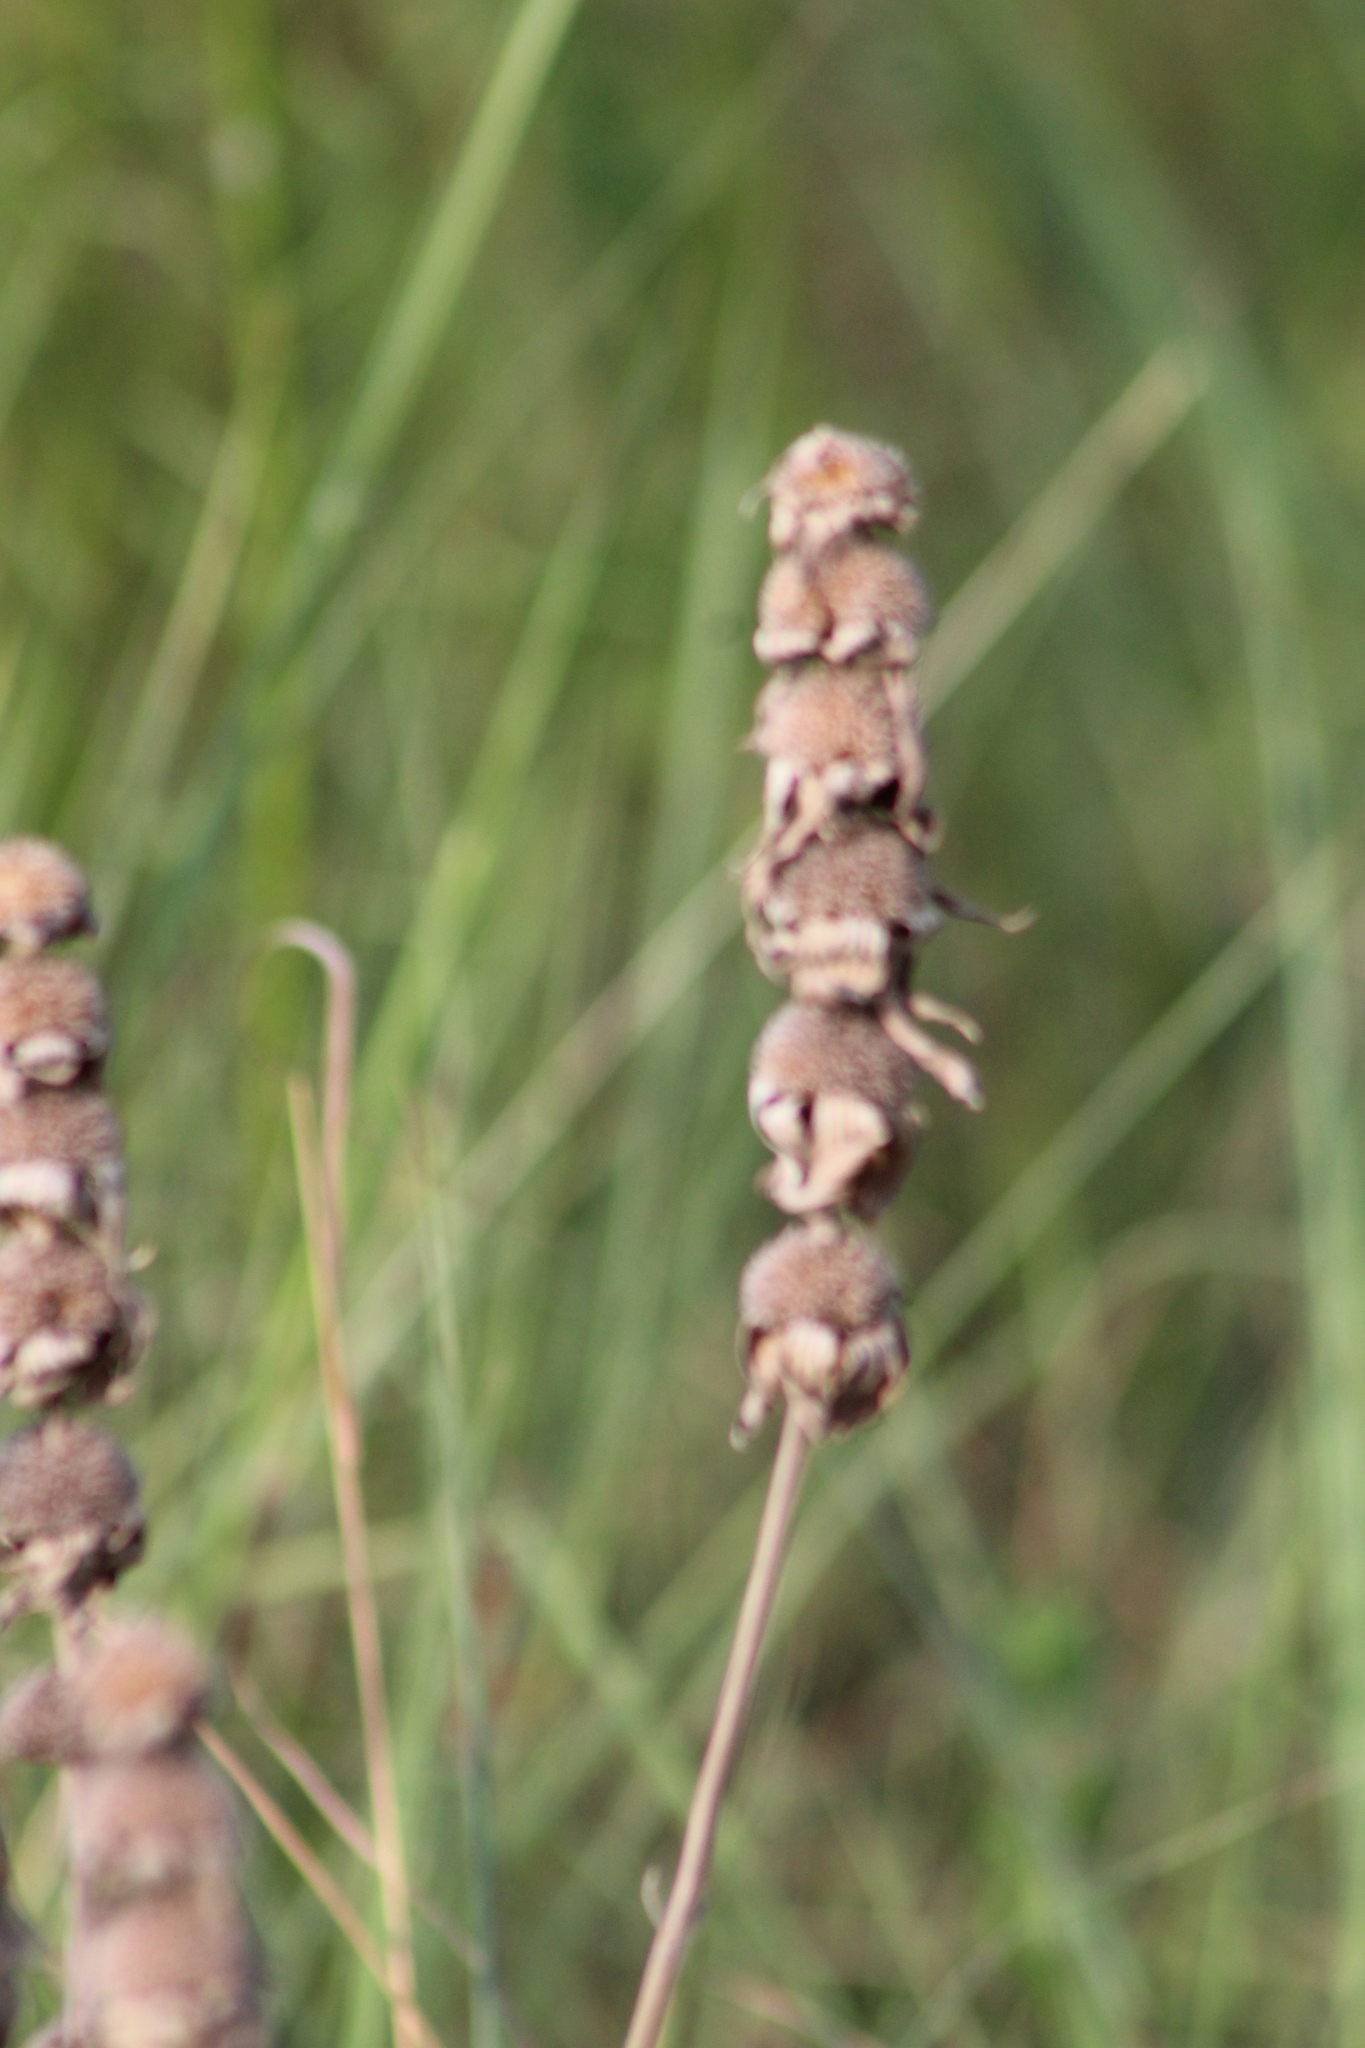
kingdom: Plantae
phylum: Tracheophyta
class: Magnoliopsida
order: Lamiales
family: Lamiaceae
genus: Monarda
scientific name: Monarda punctata
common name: Dotted monarda
